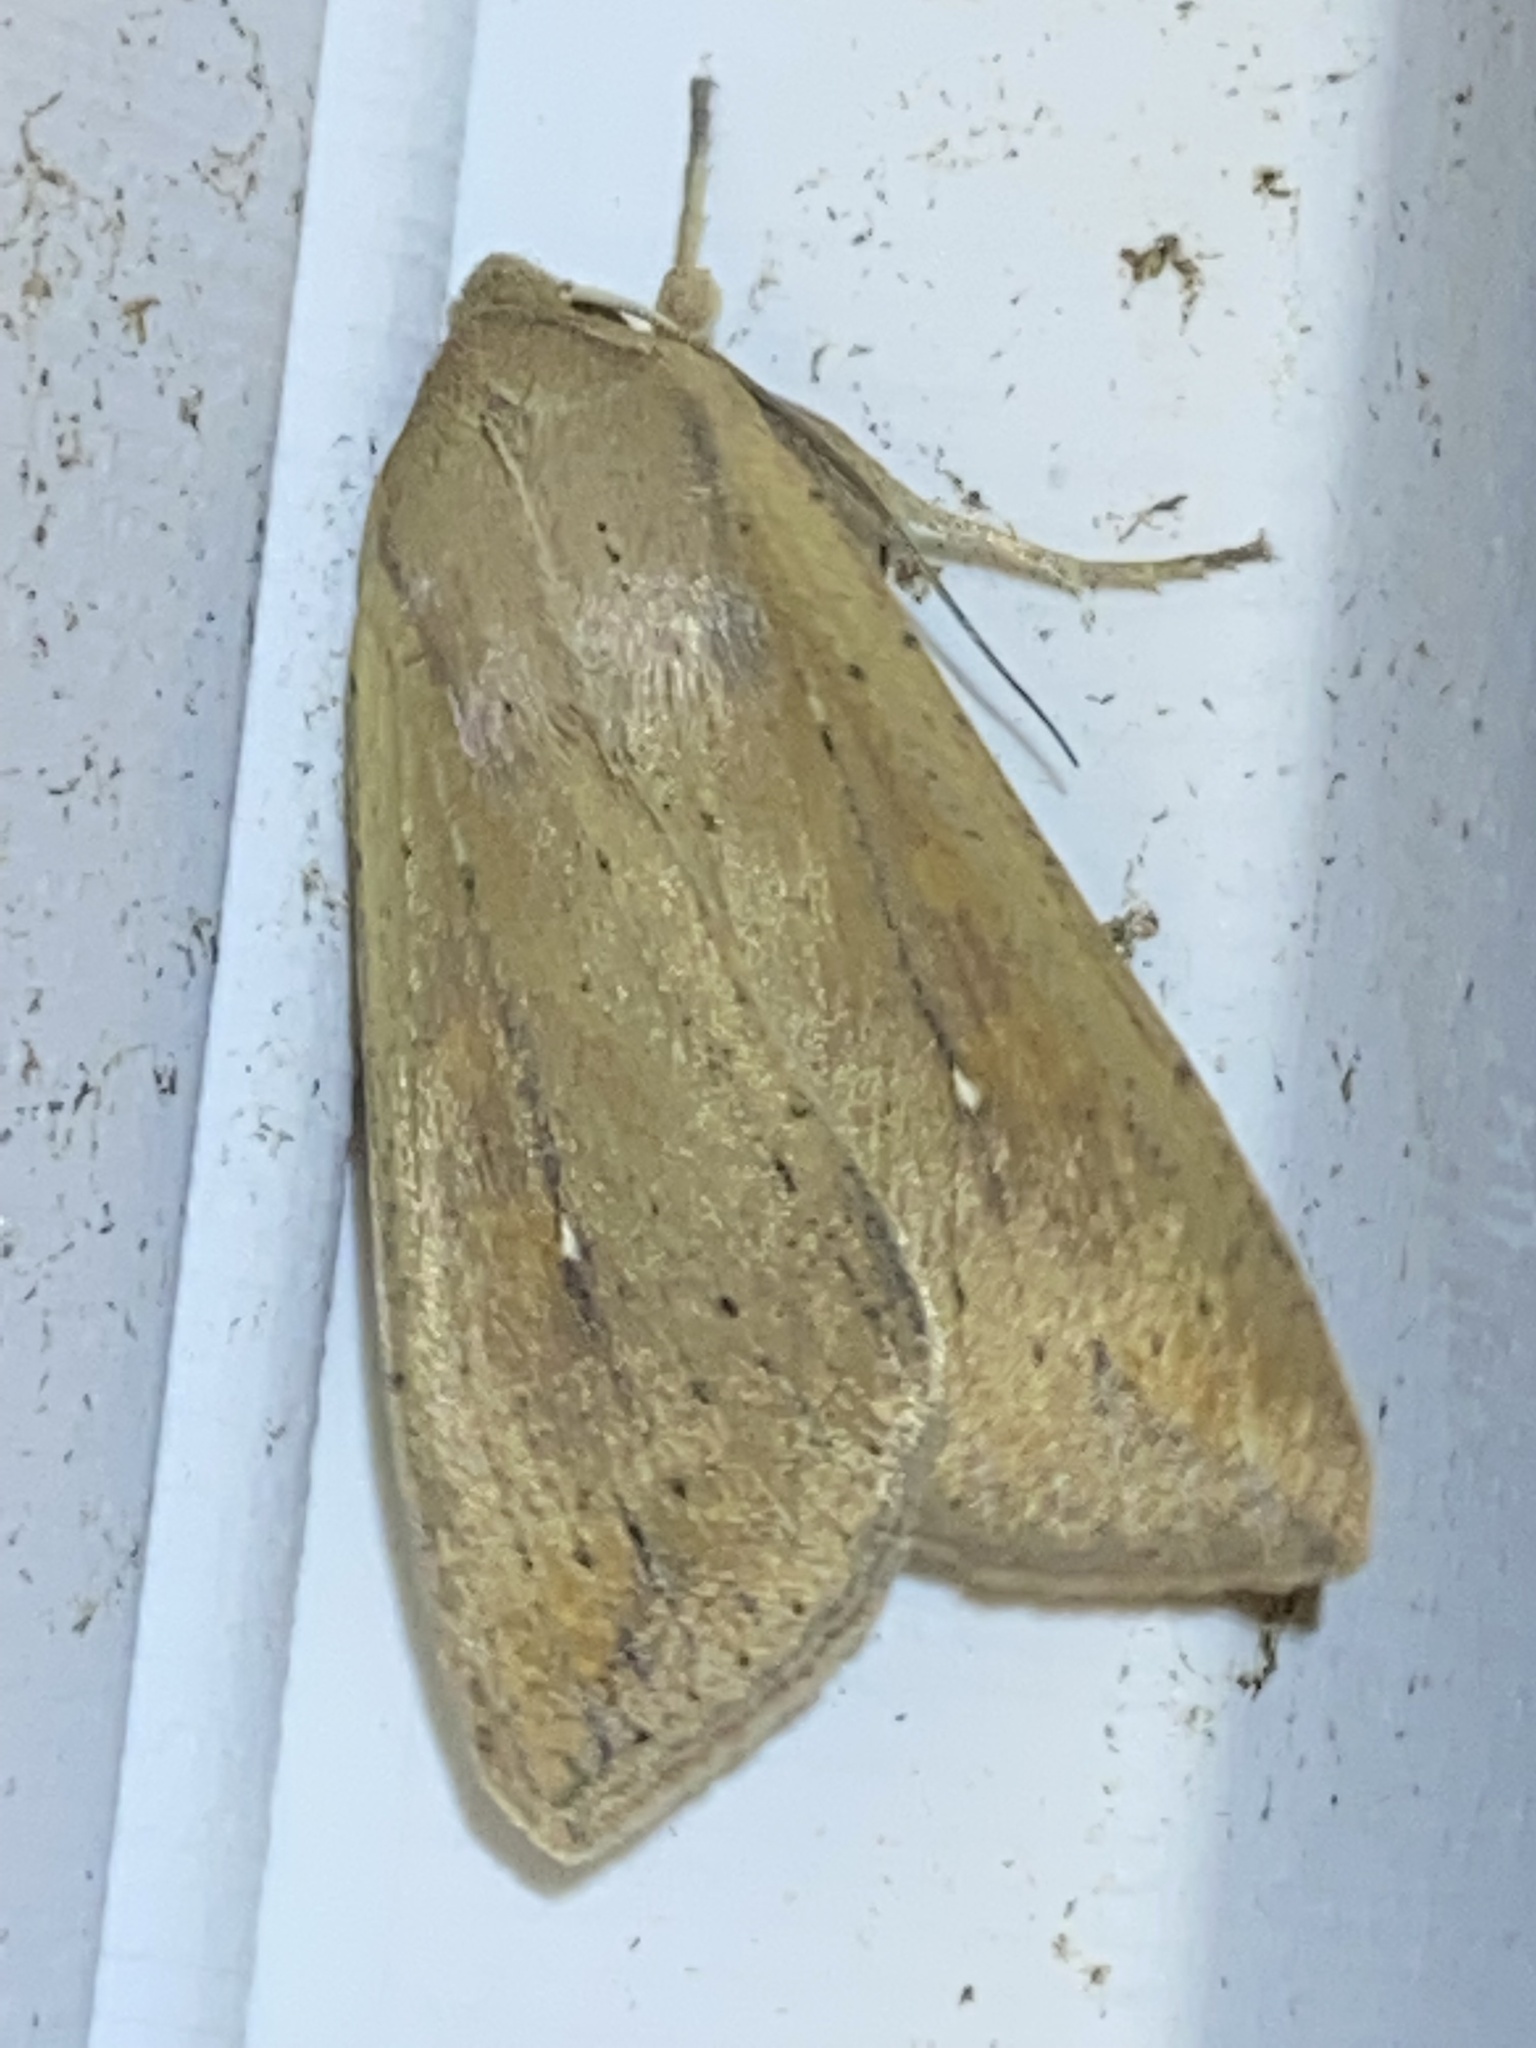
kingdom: Animalia
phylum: Arthropoda
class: Insecta
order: Lepidoptera
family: Noctuidae
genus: Mythimna
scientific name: Mythimna unipuncta
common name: White-speck
